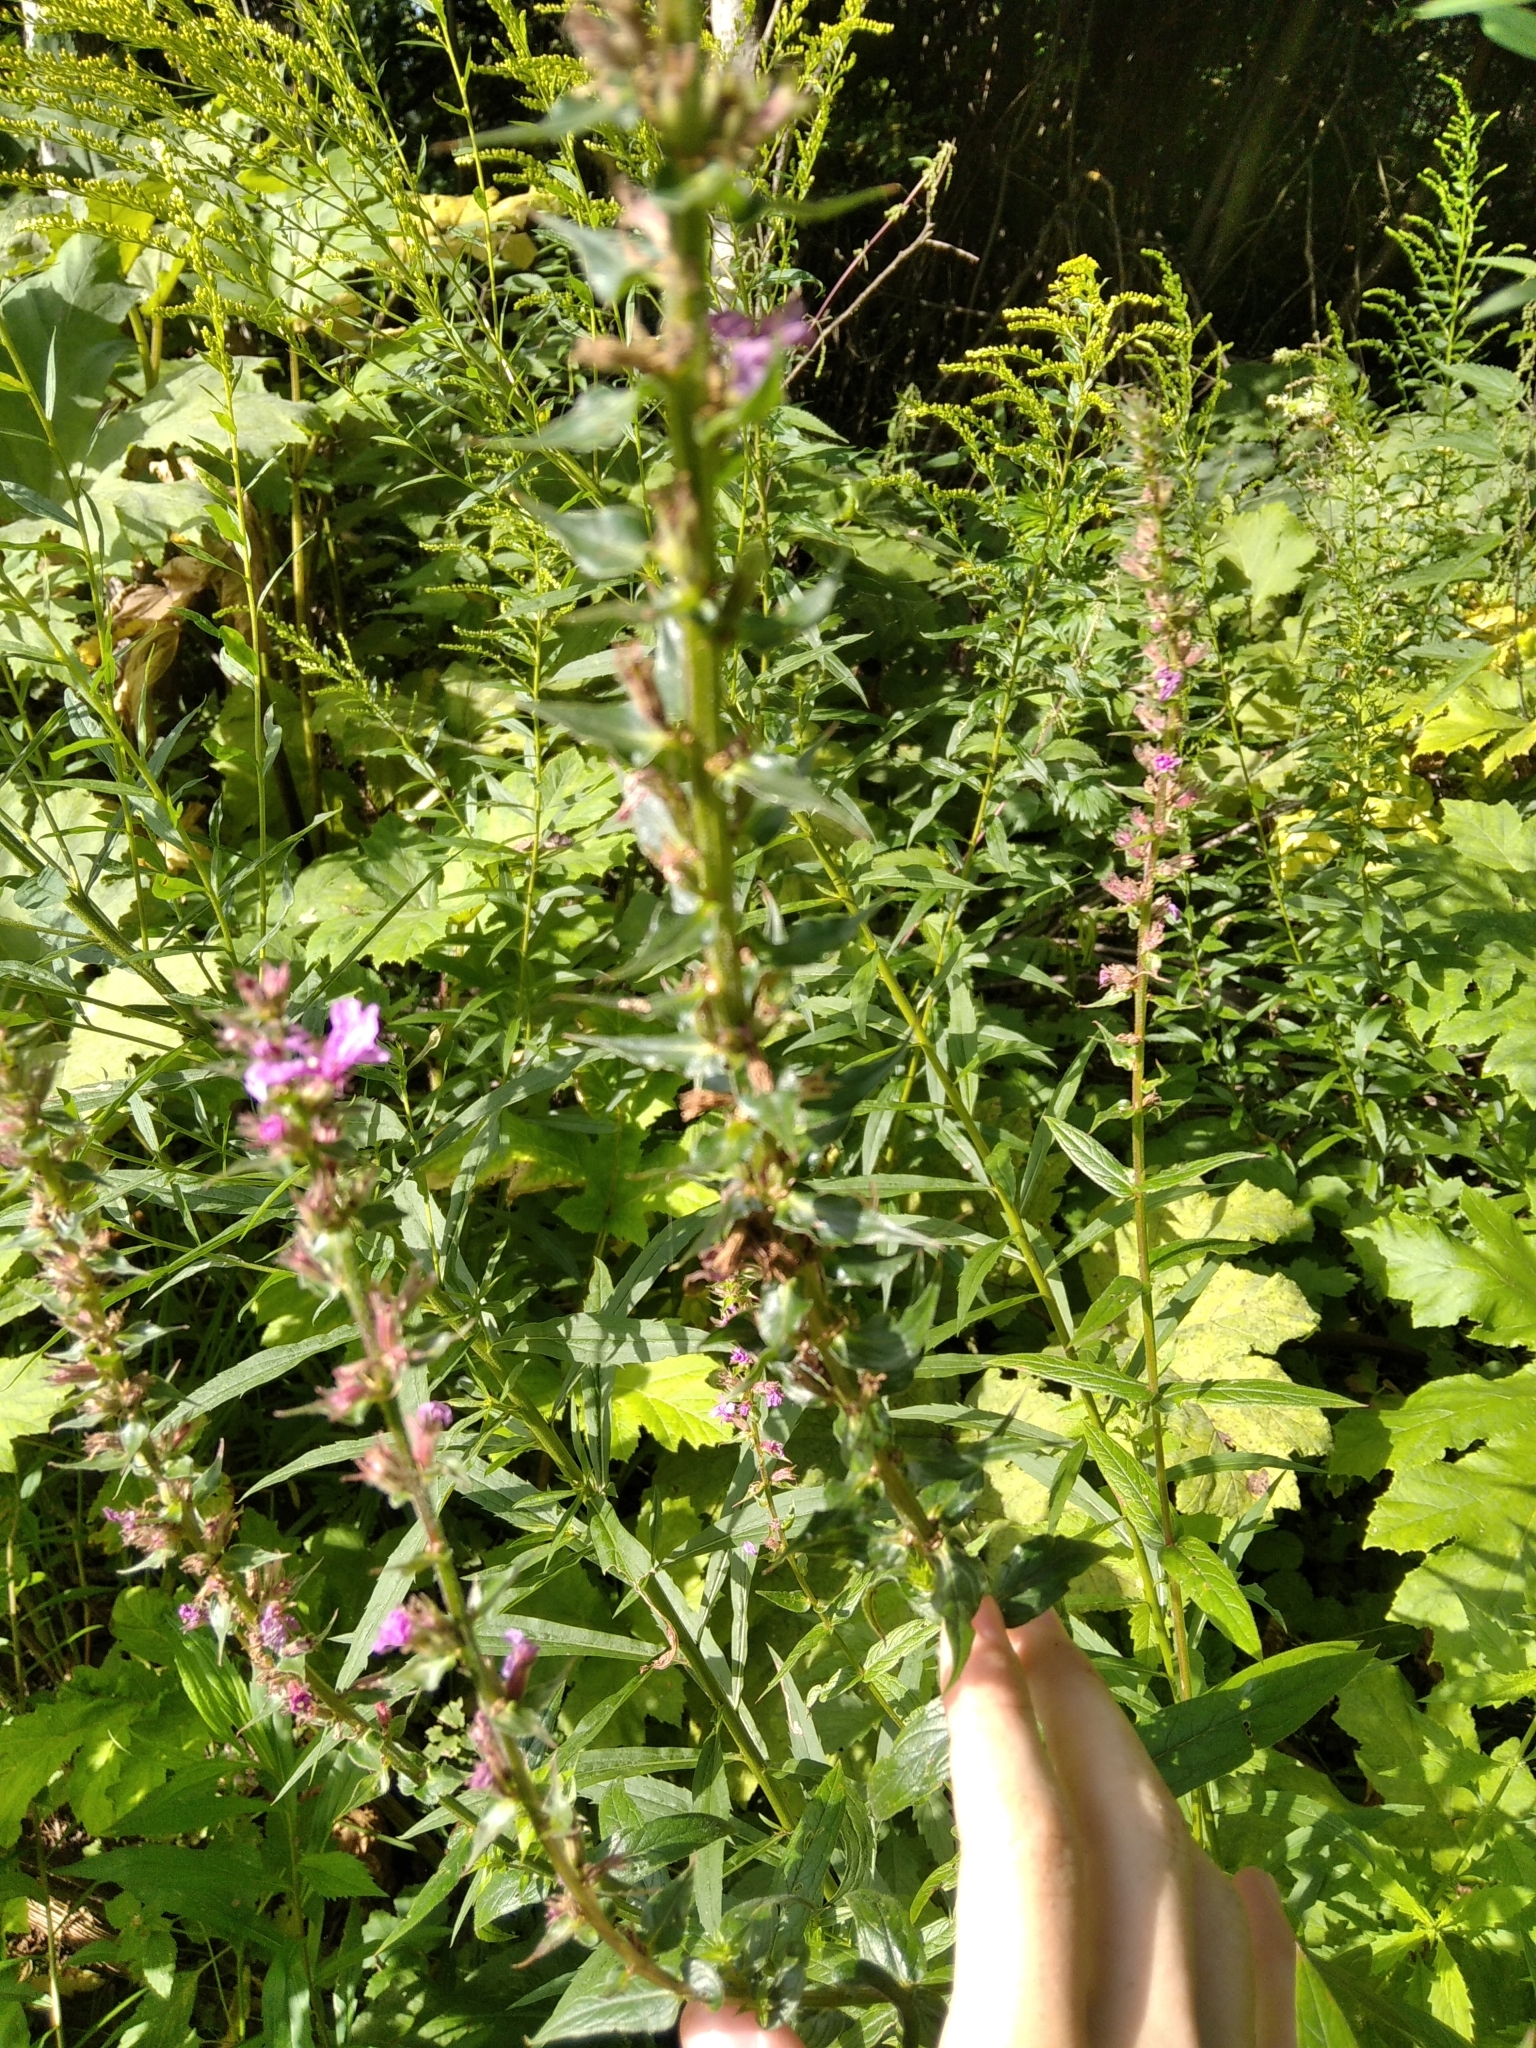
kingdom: Plantae
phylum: Tracheophyta
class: Magnoliopsida
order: Myrtales
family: Lythraceae
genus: Lythrum
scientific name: Lythrum salicaria
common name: Purple loosestrife
